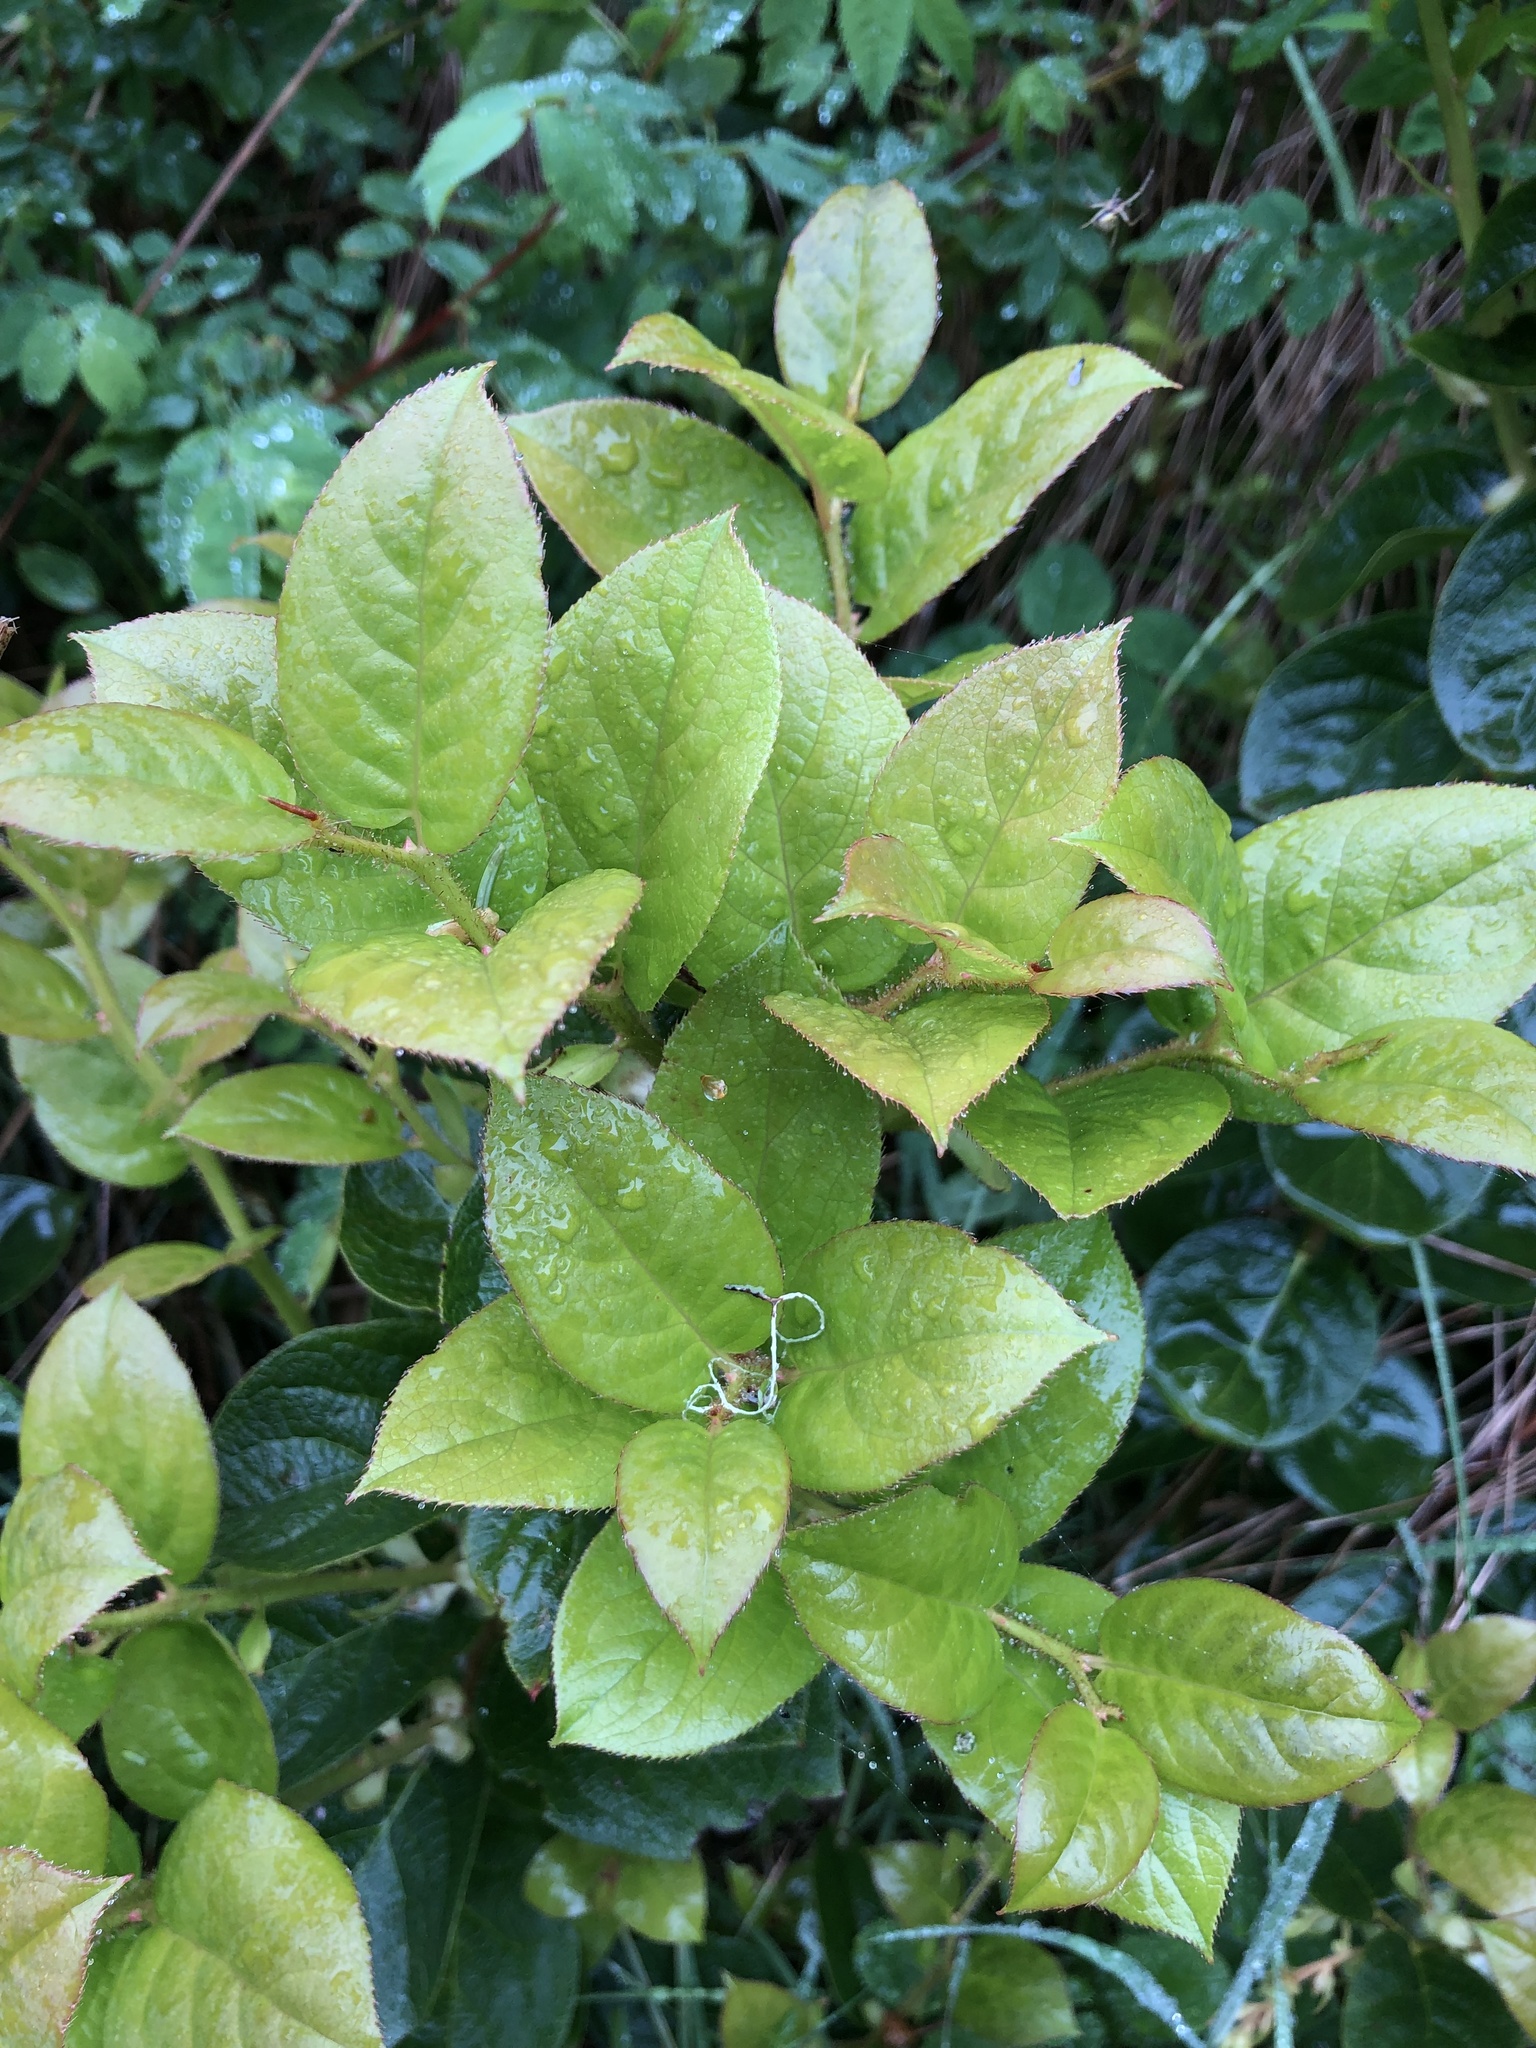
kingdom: Plantae
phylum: Tracheophyta
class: Magnoliopsida
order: Ericales
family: Ericaceae
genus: Gaultheria
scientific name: Gaultheria shallon
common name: Shallon
